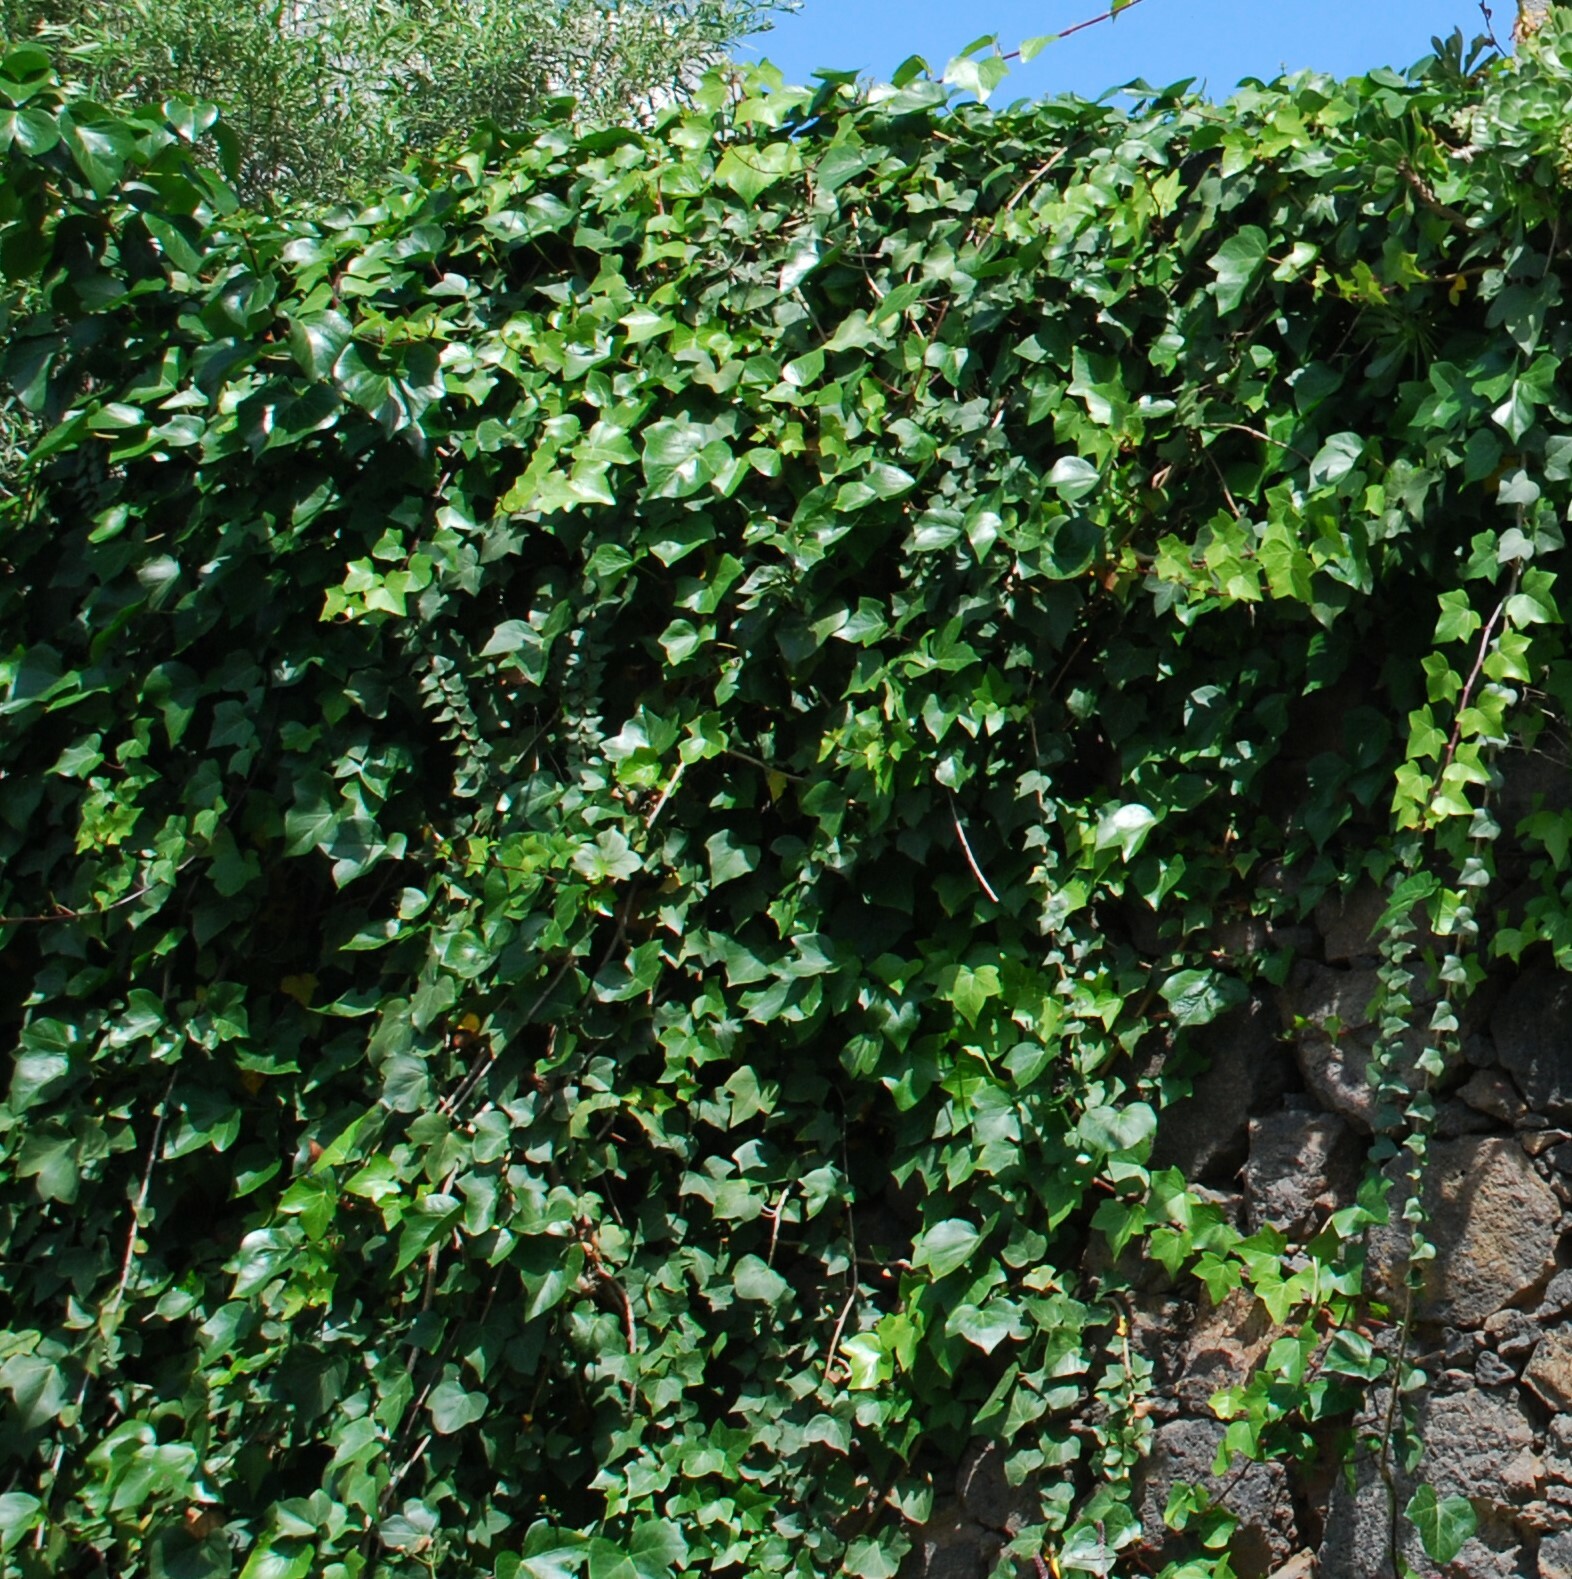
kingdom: Plantae
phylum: Tracheophyta
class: Magnoliopsida
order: Apiales
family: Araliaceae
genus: Hedera
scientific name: Hedera canariensis
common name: Madeira ivy
